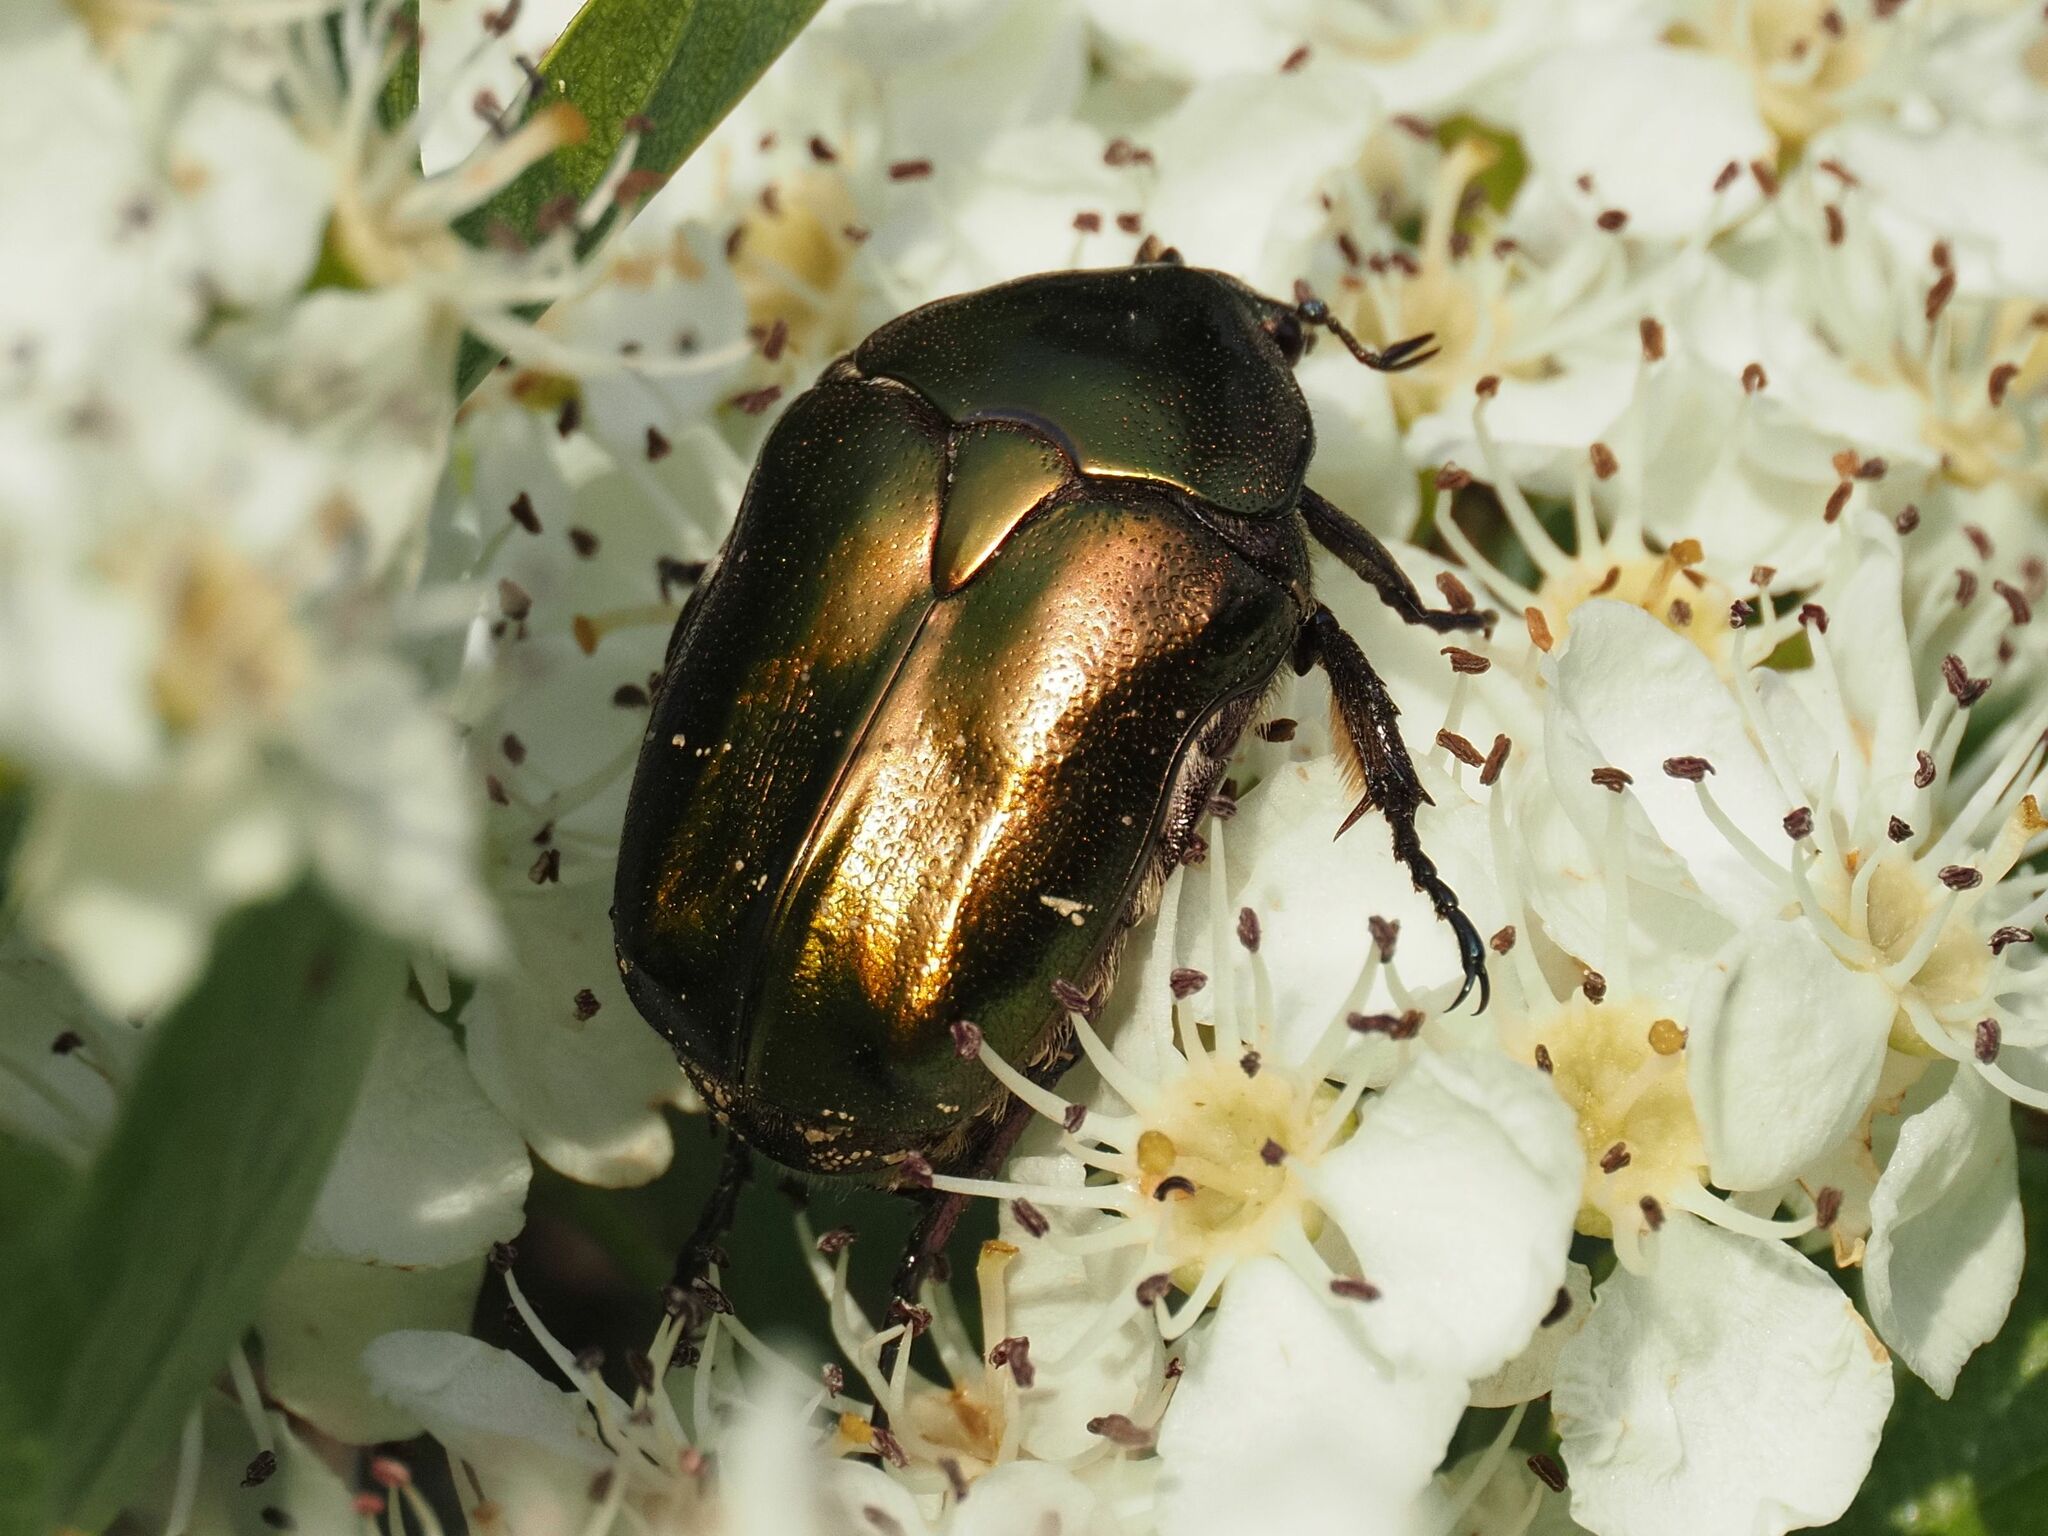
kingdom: Animalia
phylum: Arthropoda
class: Insecta
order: Coleoptera
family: Scarabaeidae
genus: Protaetia
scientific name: Protaetia cuprea
